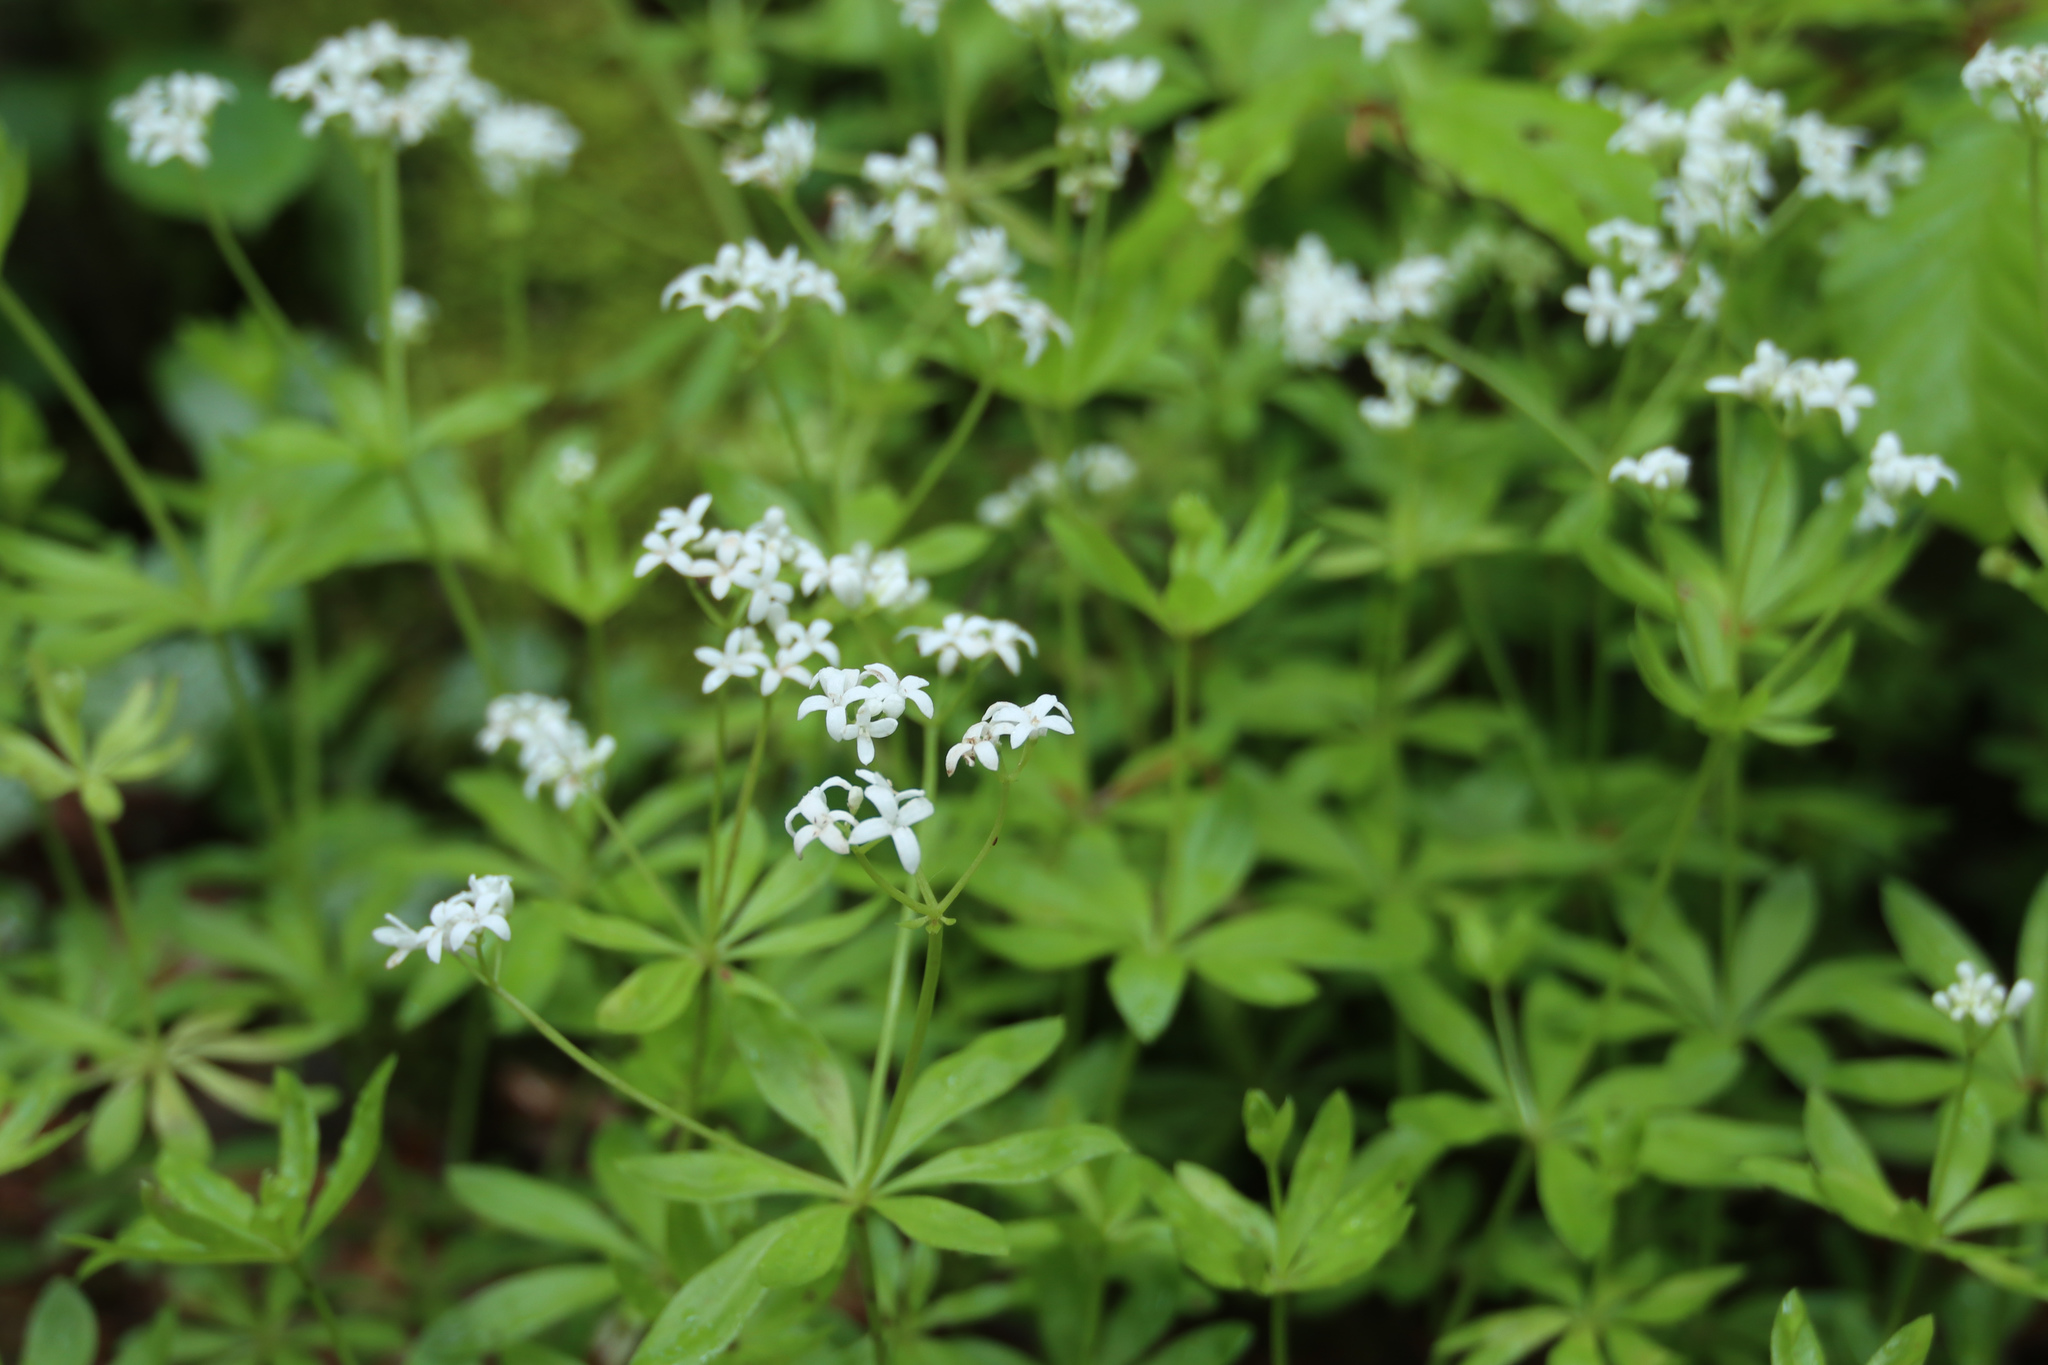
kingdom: Plantae
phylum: Tracheophyta
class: Magnoliopsida
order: Gentianales
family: Rubiaceae
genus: Galium
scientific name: Galium odoratum
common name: Sweet woodruff
